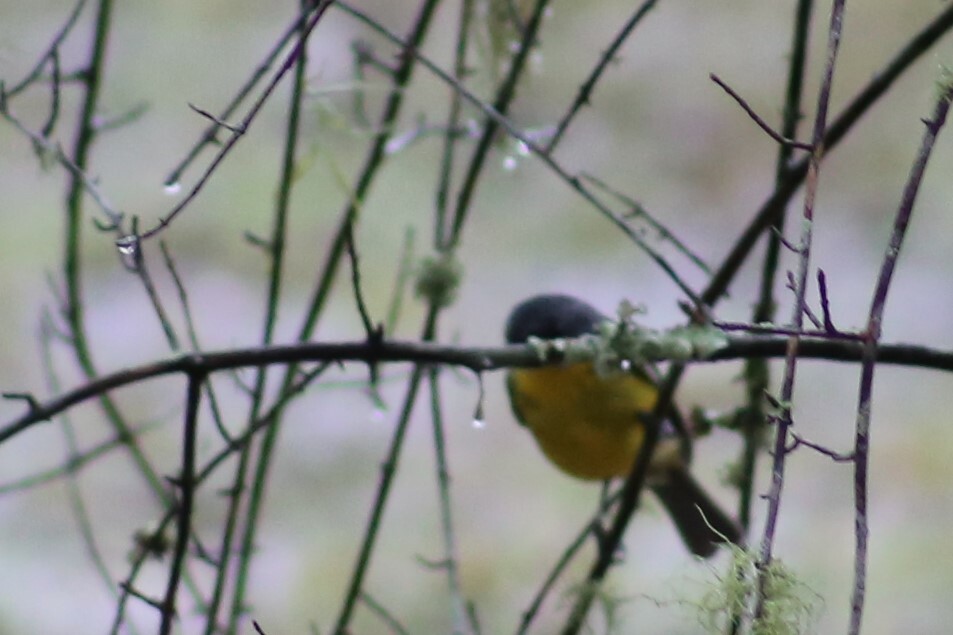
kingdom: Animalia
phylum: Chordata
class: Aves
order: Passeriformes
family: Petroicidae
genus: Eopsaltria
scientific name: Eopsaltria australis
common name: Eastern yellow robin
